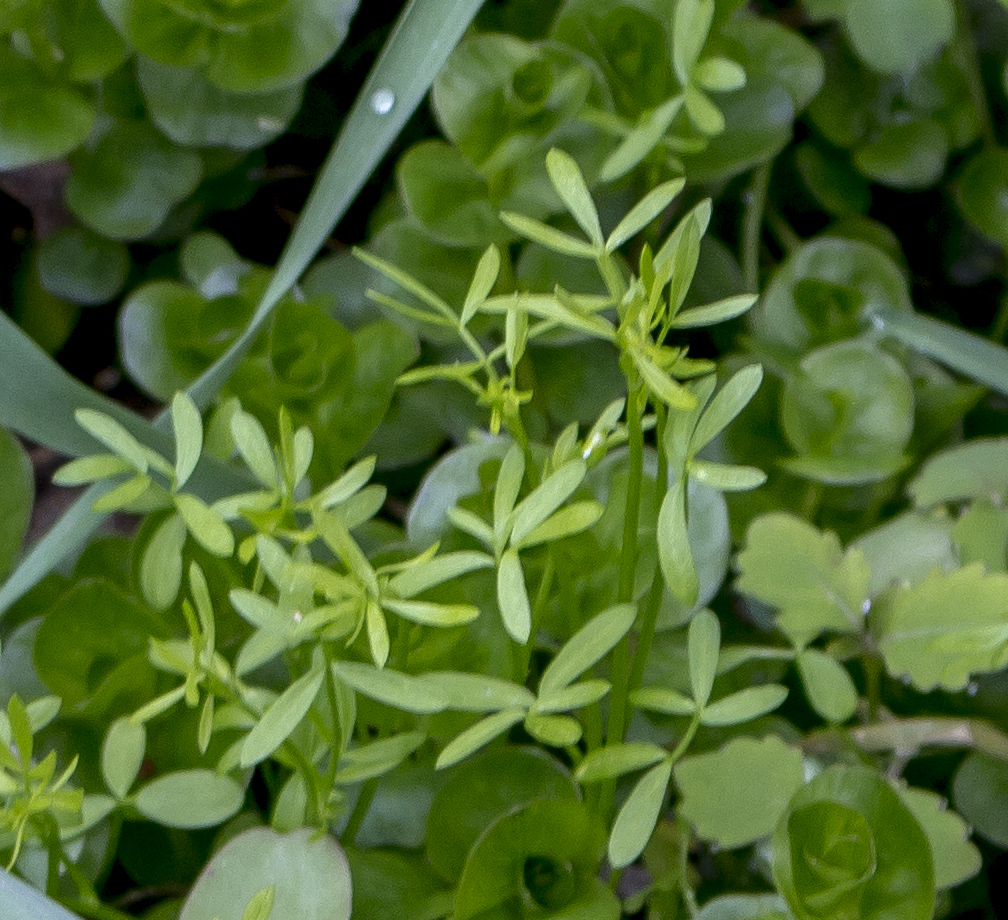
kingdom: Plantae
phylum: Tracheophyta
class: Magnoliopsida
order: Brassicales
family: Limnanthaceae
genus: Floerkea
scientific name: Floerkea proserpinacoides
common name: False mermaid
